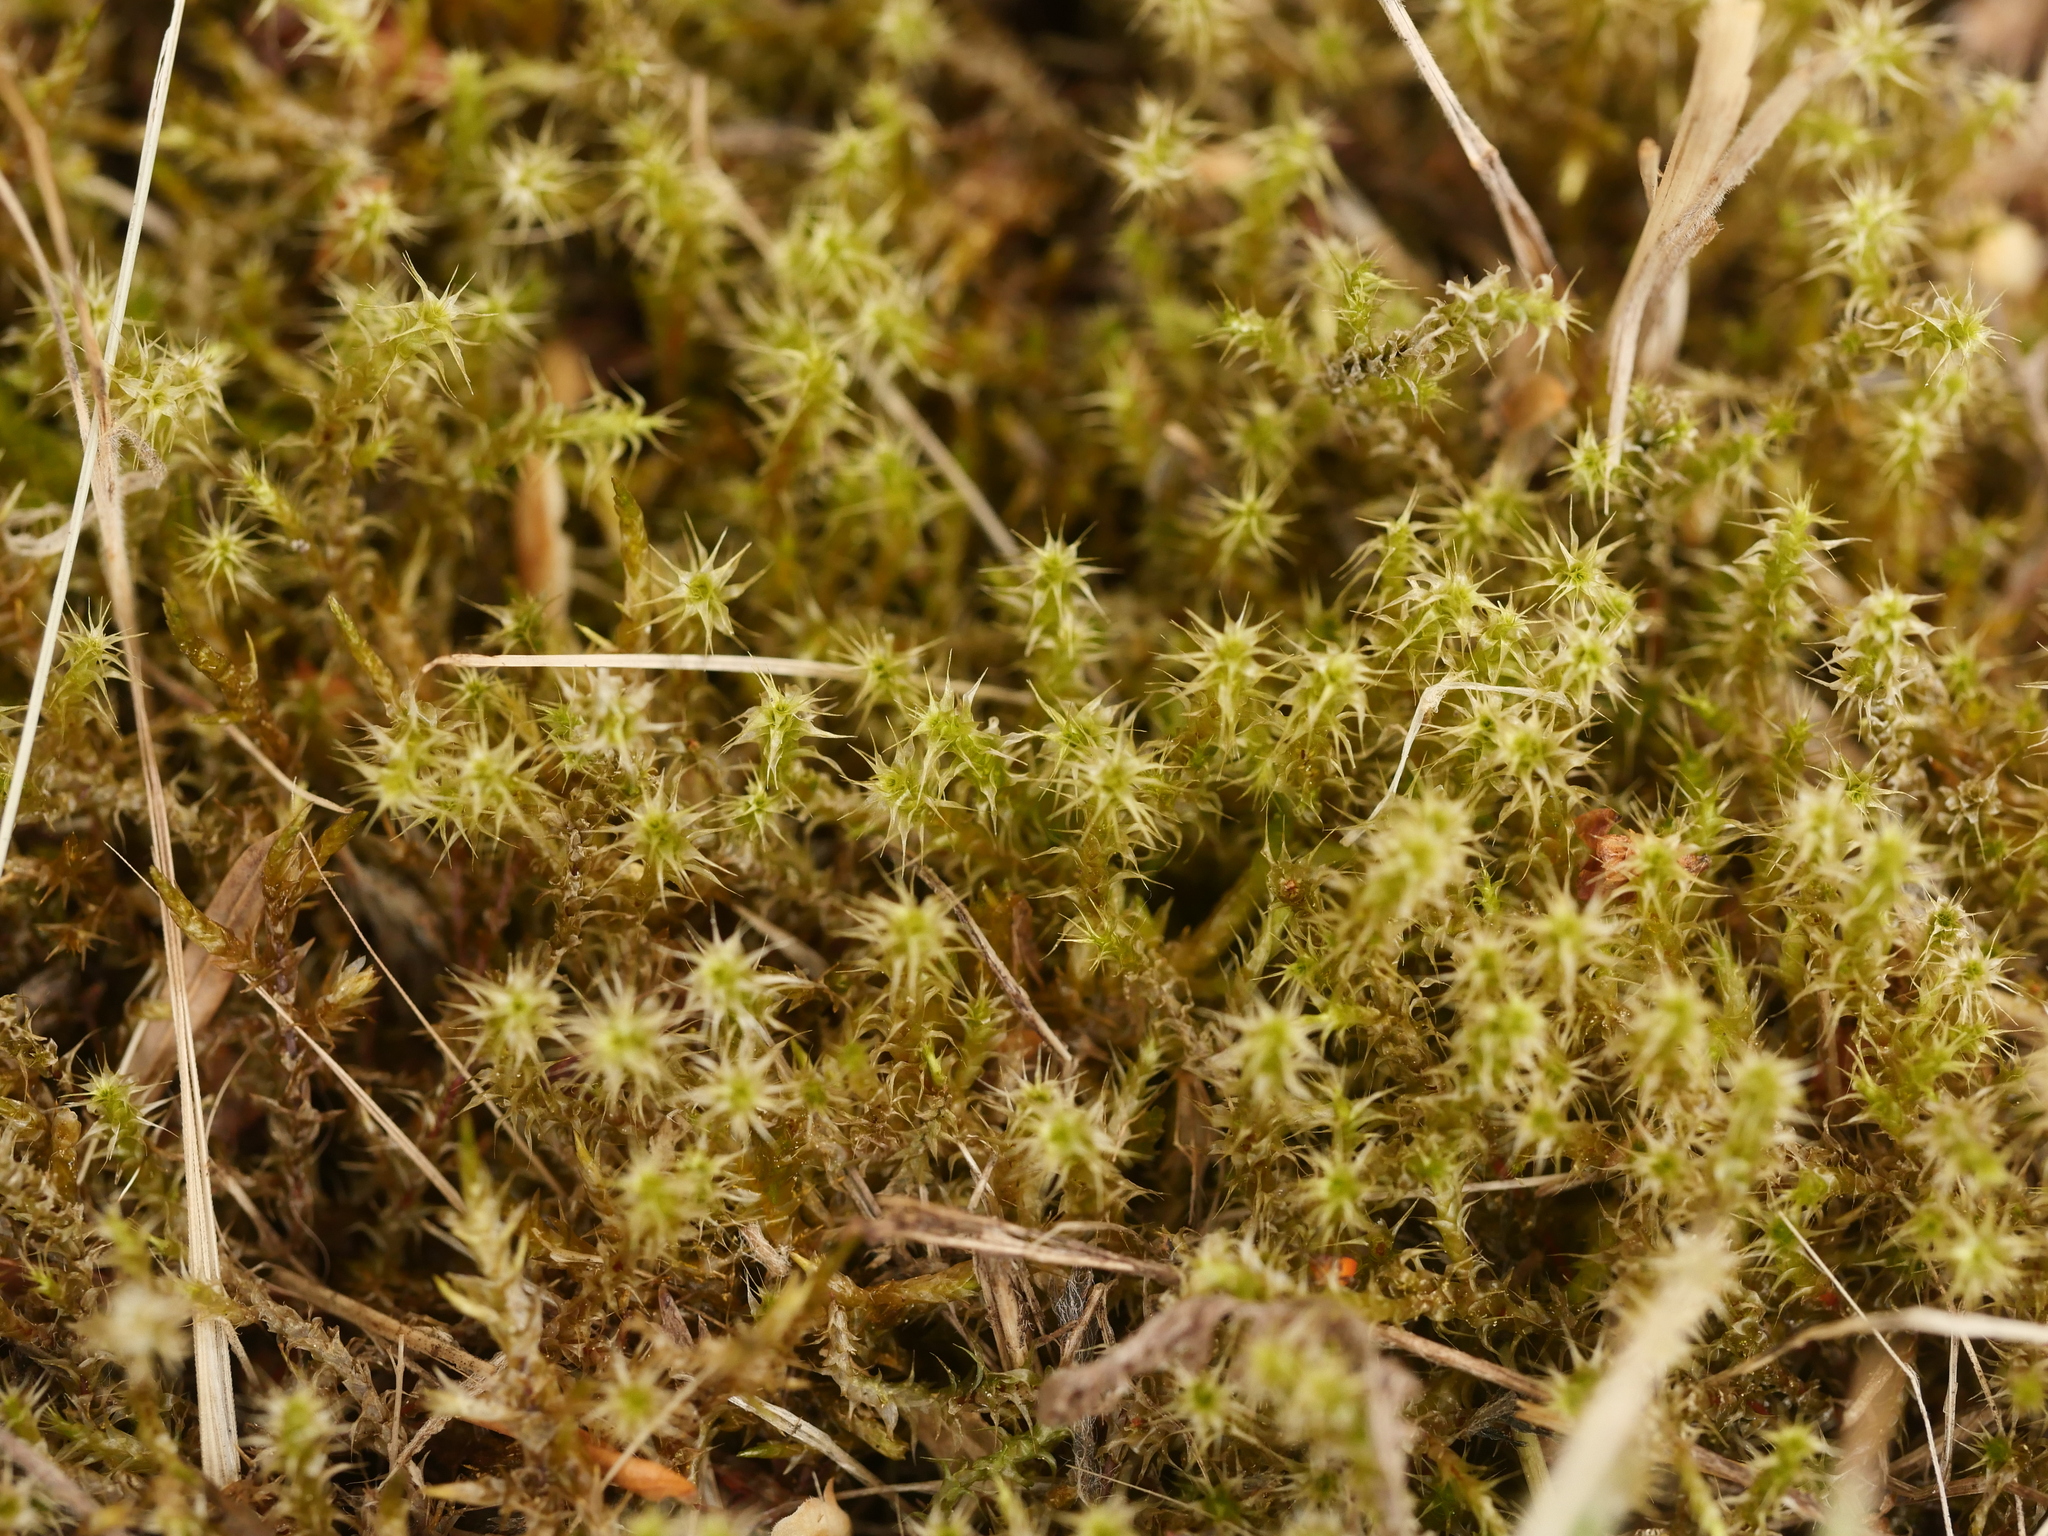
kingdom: Plantae
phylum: Bryophyta
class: Bryopsida
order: Hypnales
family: Hylocomiaceae
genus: Rhytidiadelphus
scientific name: Rhytidiadelphus squarrosus
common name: Springy turf-moss
